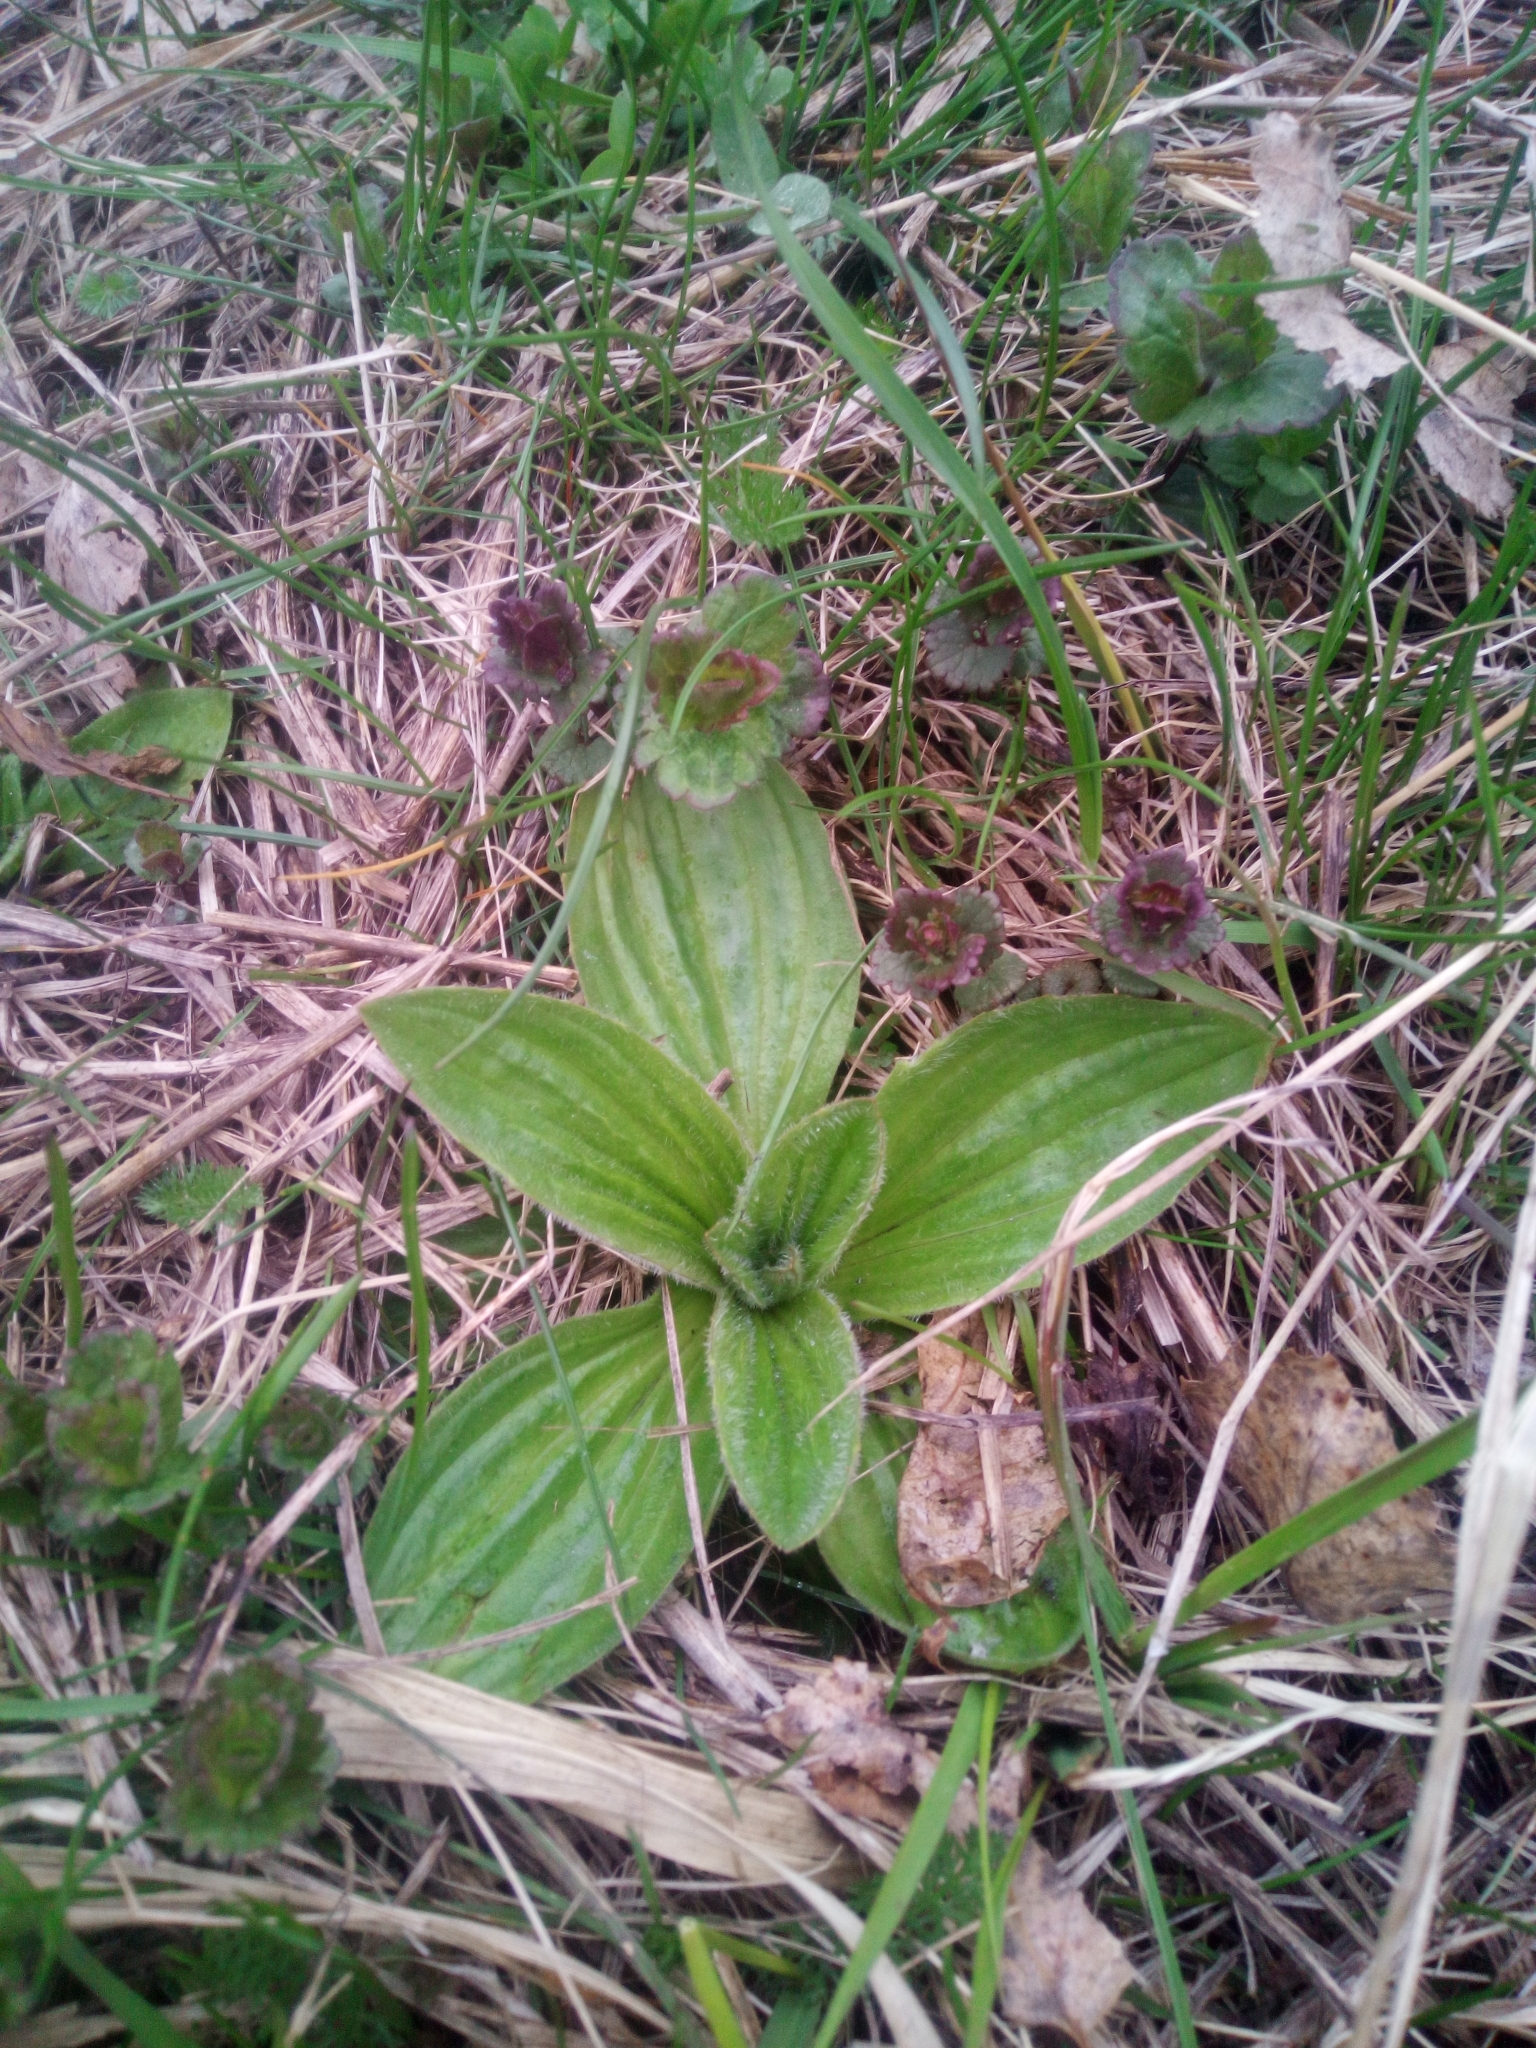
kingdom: Plantae
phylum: Tracheophyta
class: Magnoliopsida
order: Lamiales
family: Plantaginaceae
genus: Plantago
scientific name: Plantago media
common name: Hoary plantain
